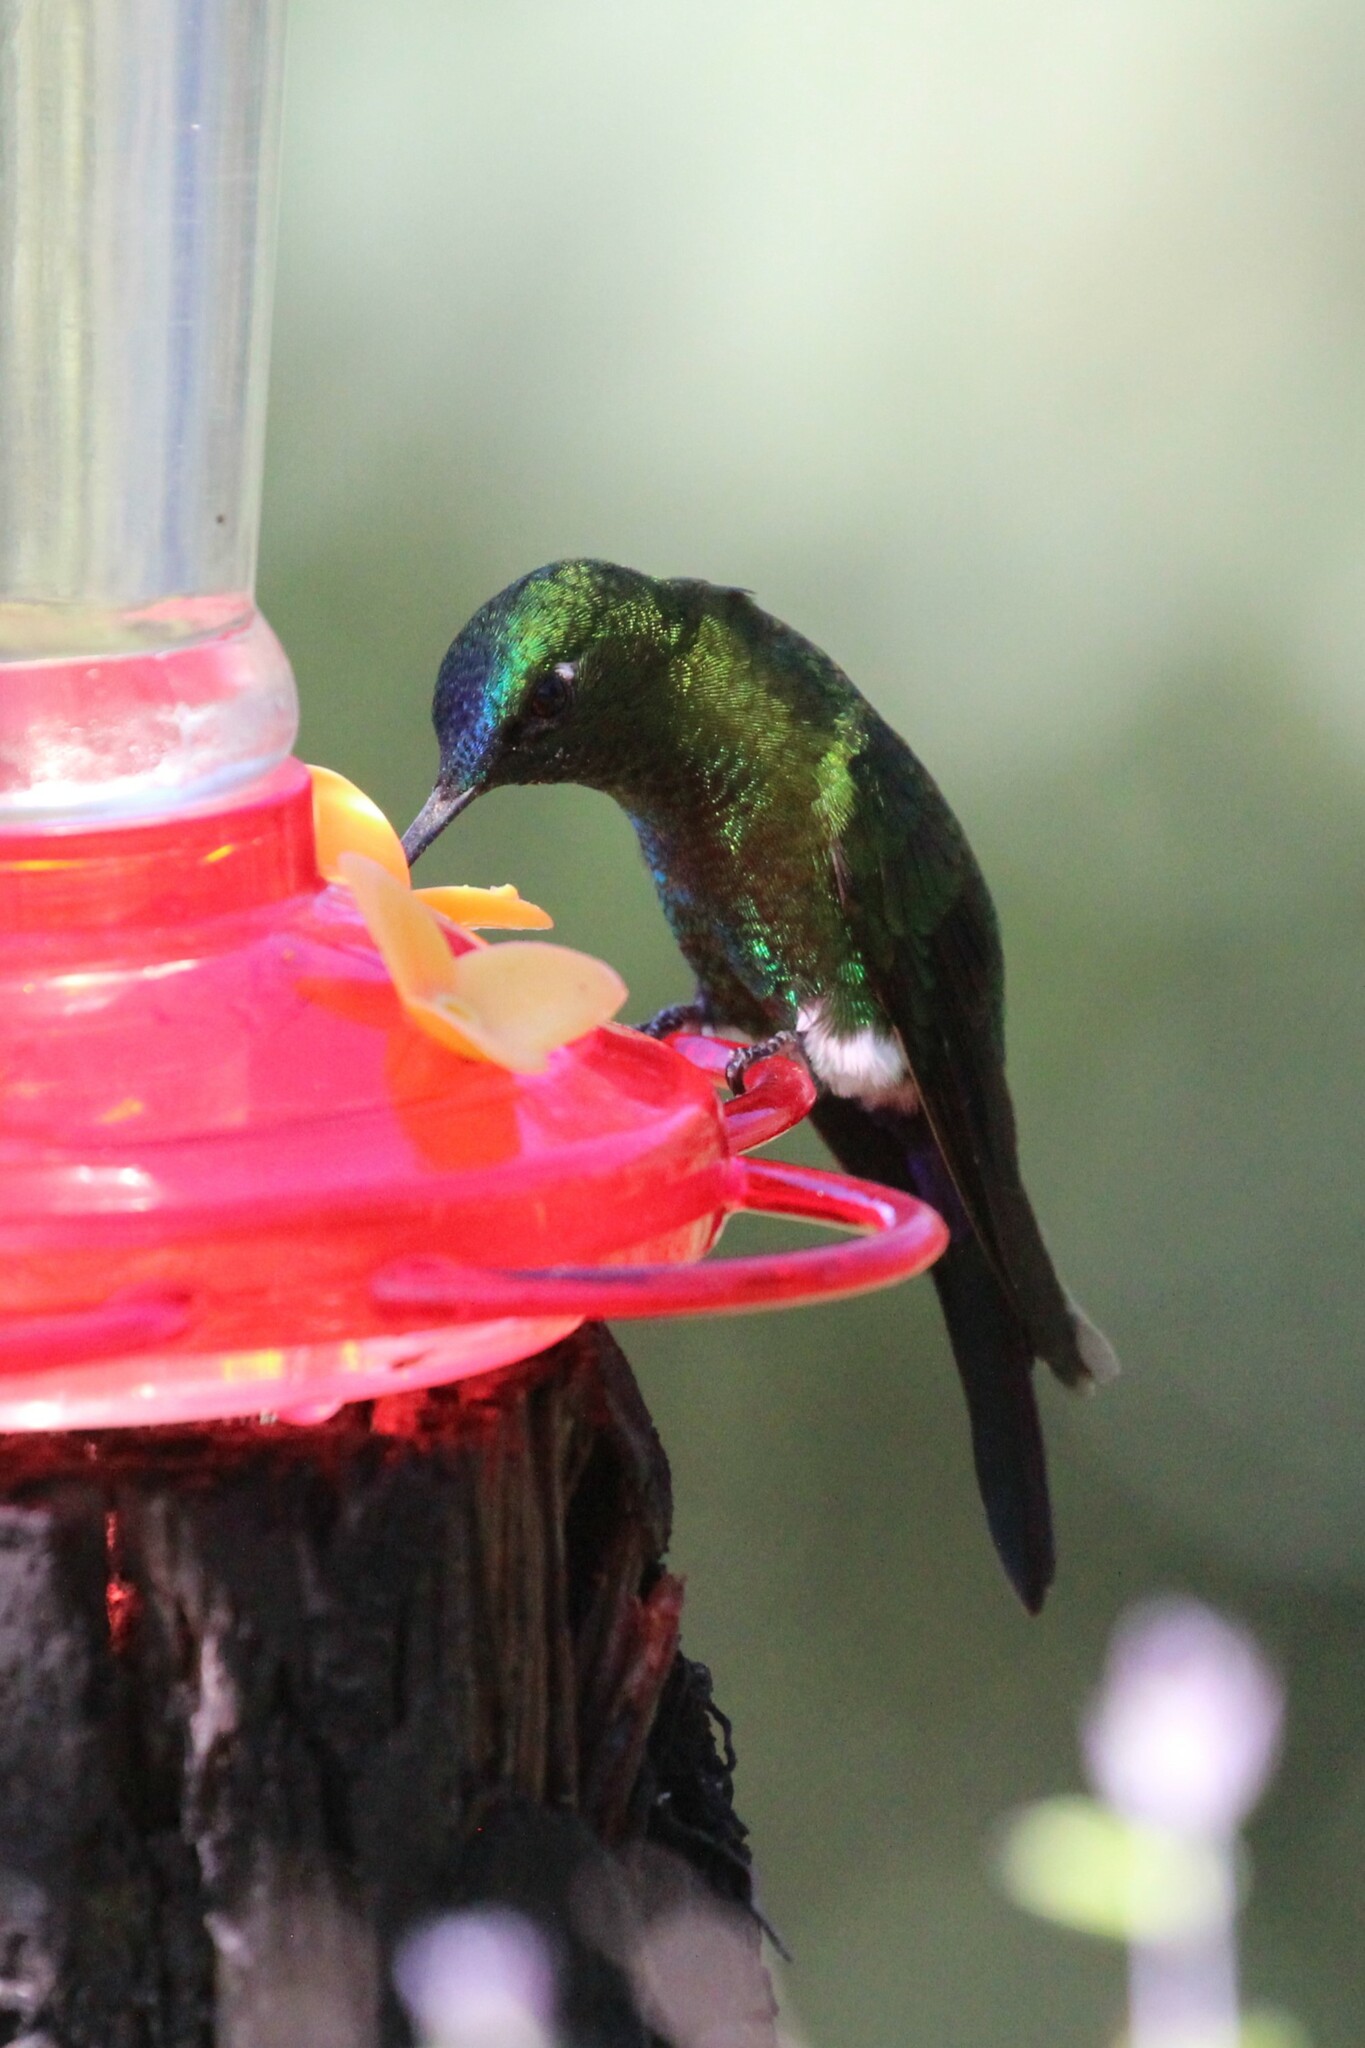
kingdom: Animalia
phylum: Chordata
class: Aves
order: Apodiformes
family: Trochilidae
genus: Eriocnemis
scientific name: Eriocnemis luciani
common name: Sapphire-vented puffleg
